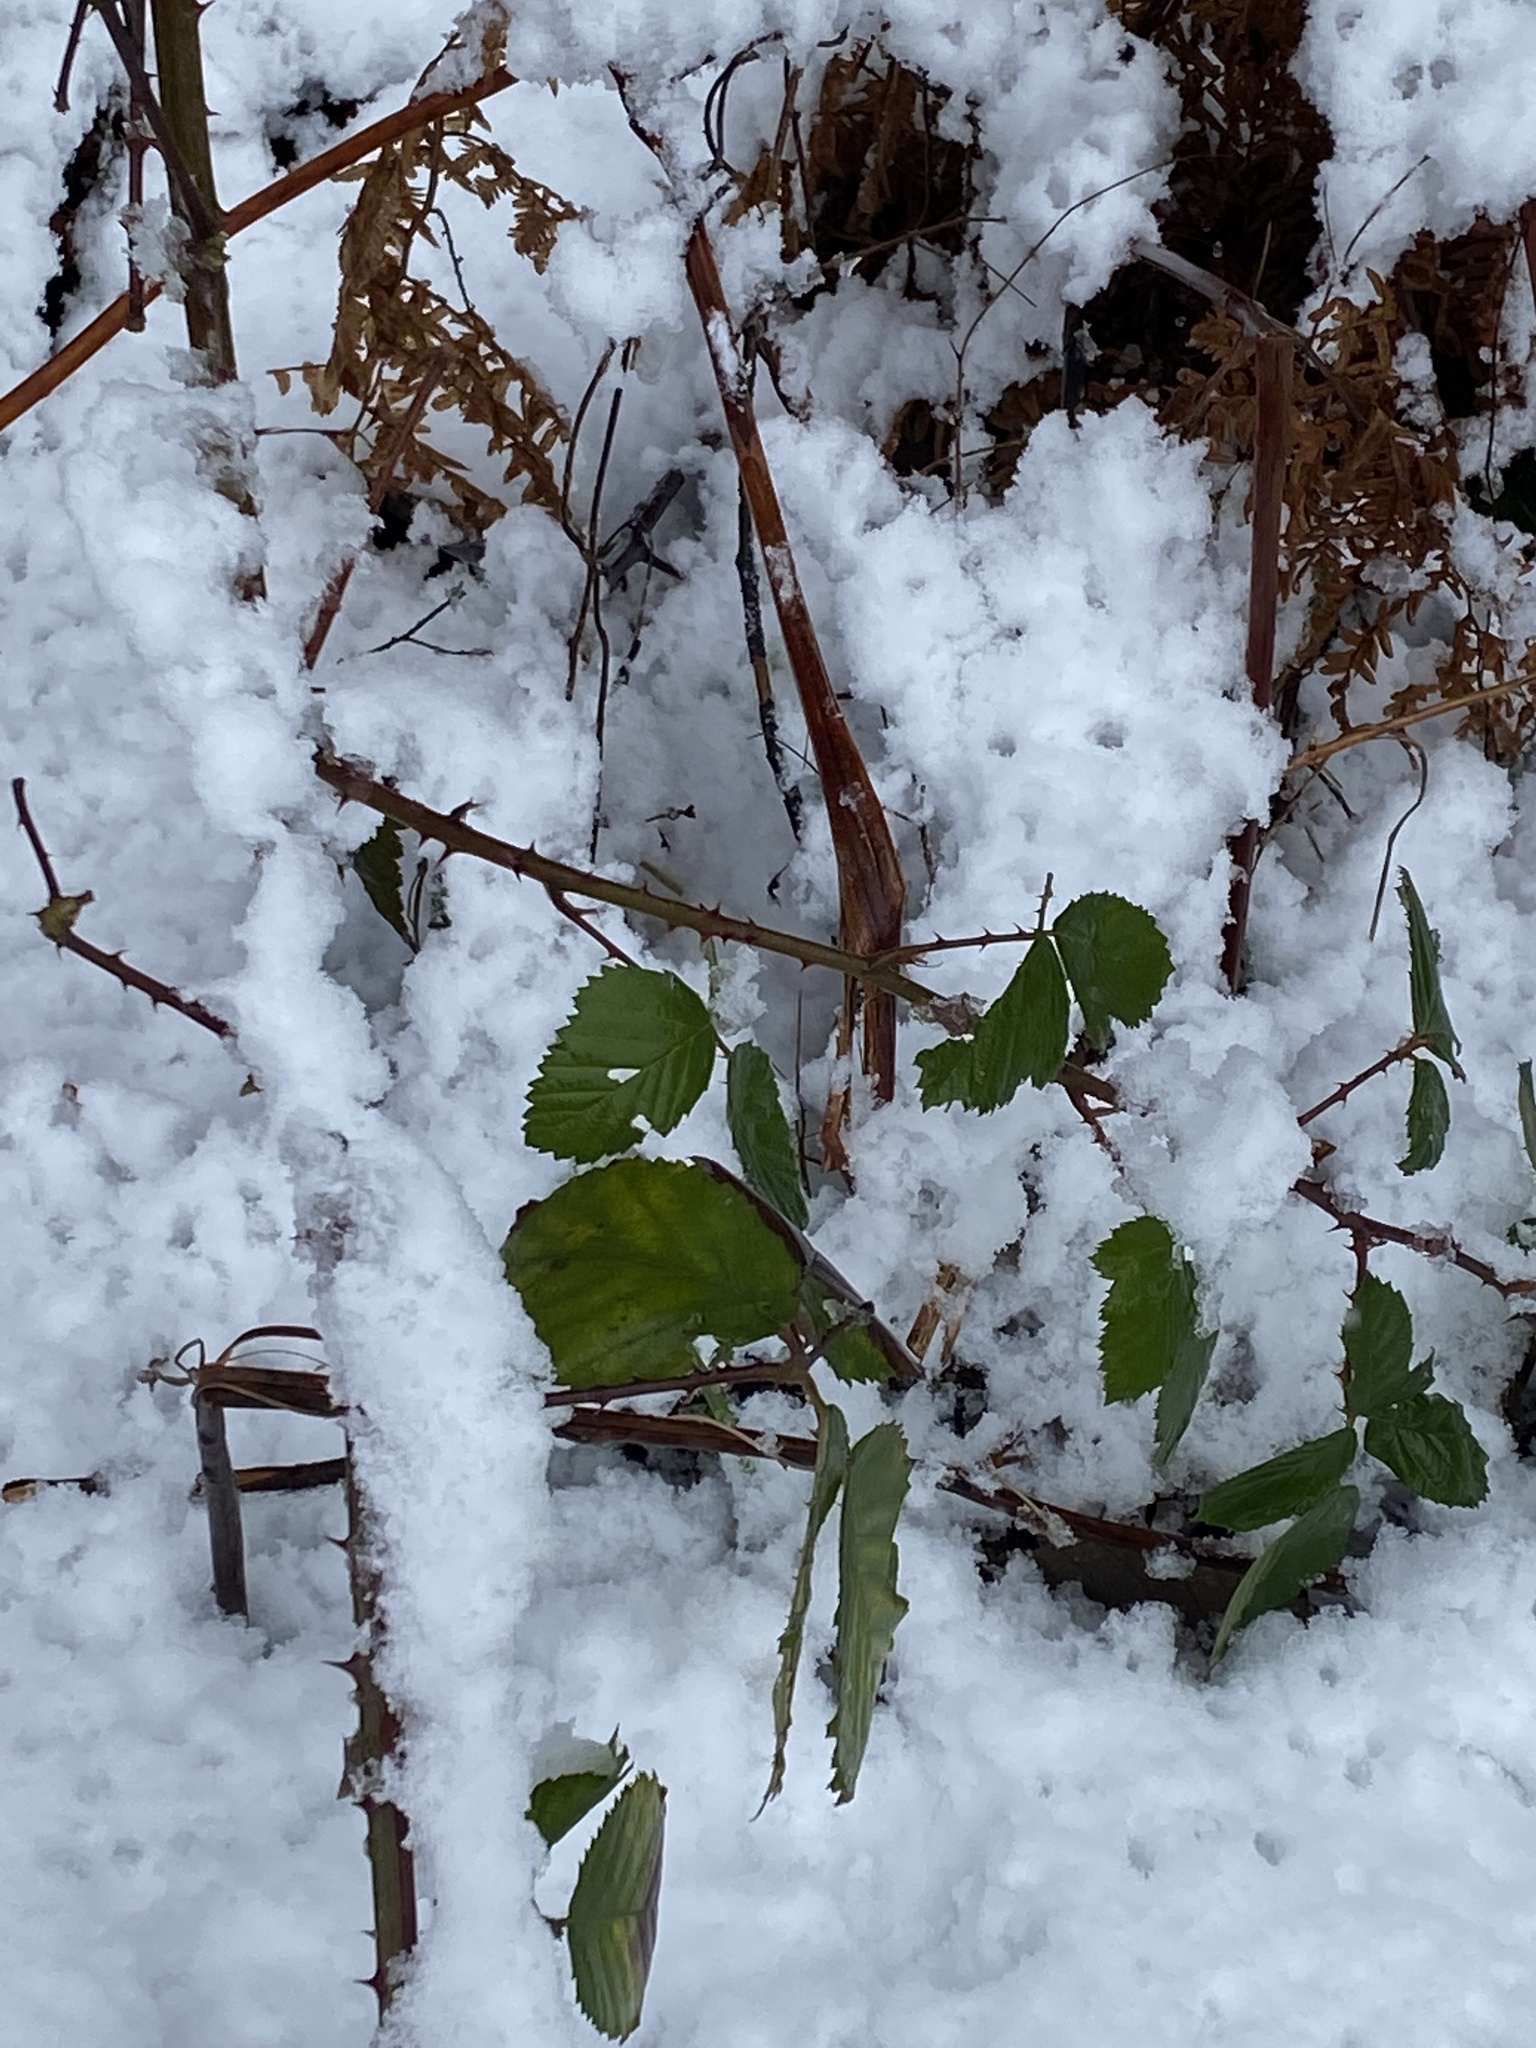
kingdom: Plantae
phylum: Tracheophyta
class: Magnoliopsida
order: Rosales
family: Rosaceae
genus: Rubus
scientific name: Rubus armeniacus
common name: Himalayan blackberry
